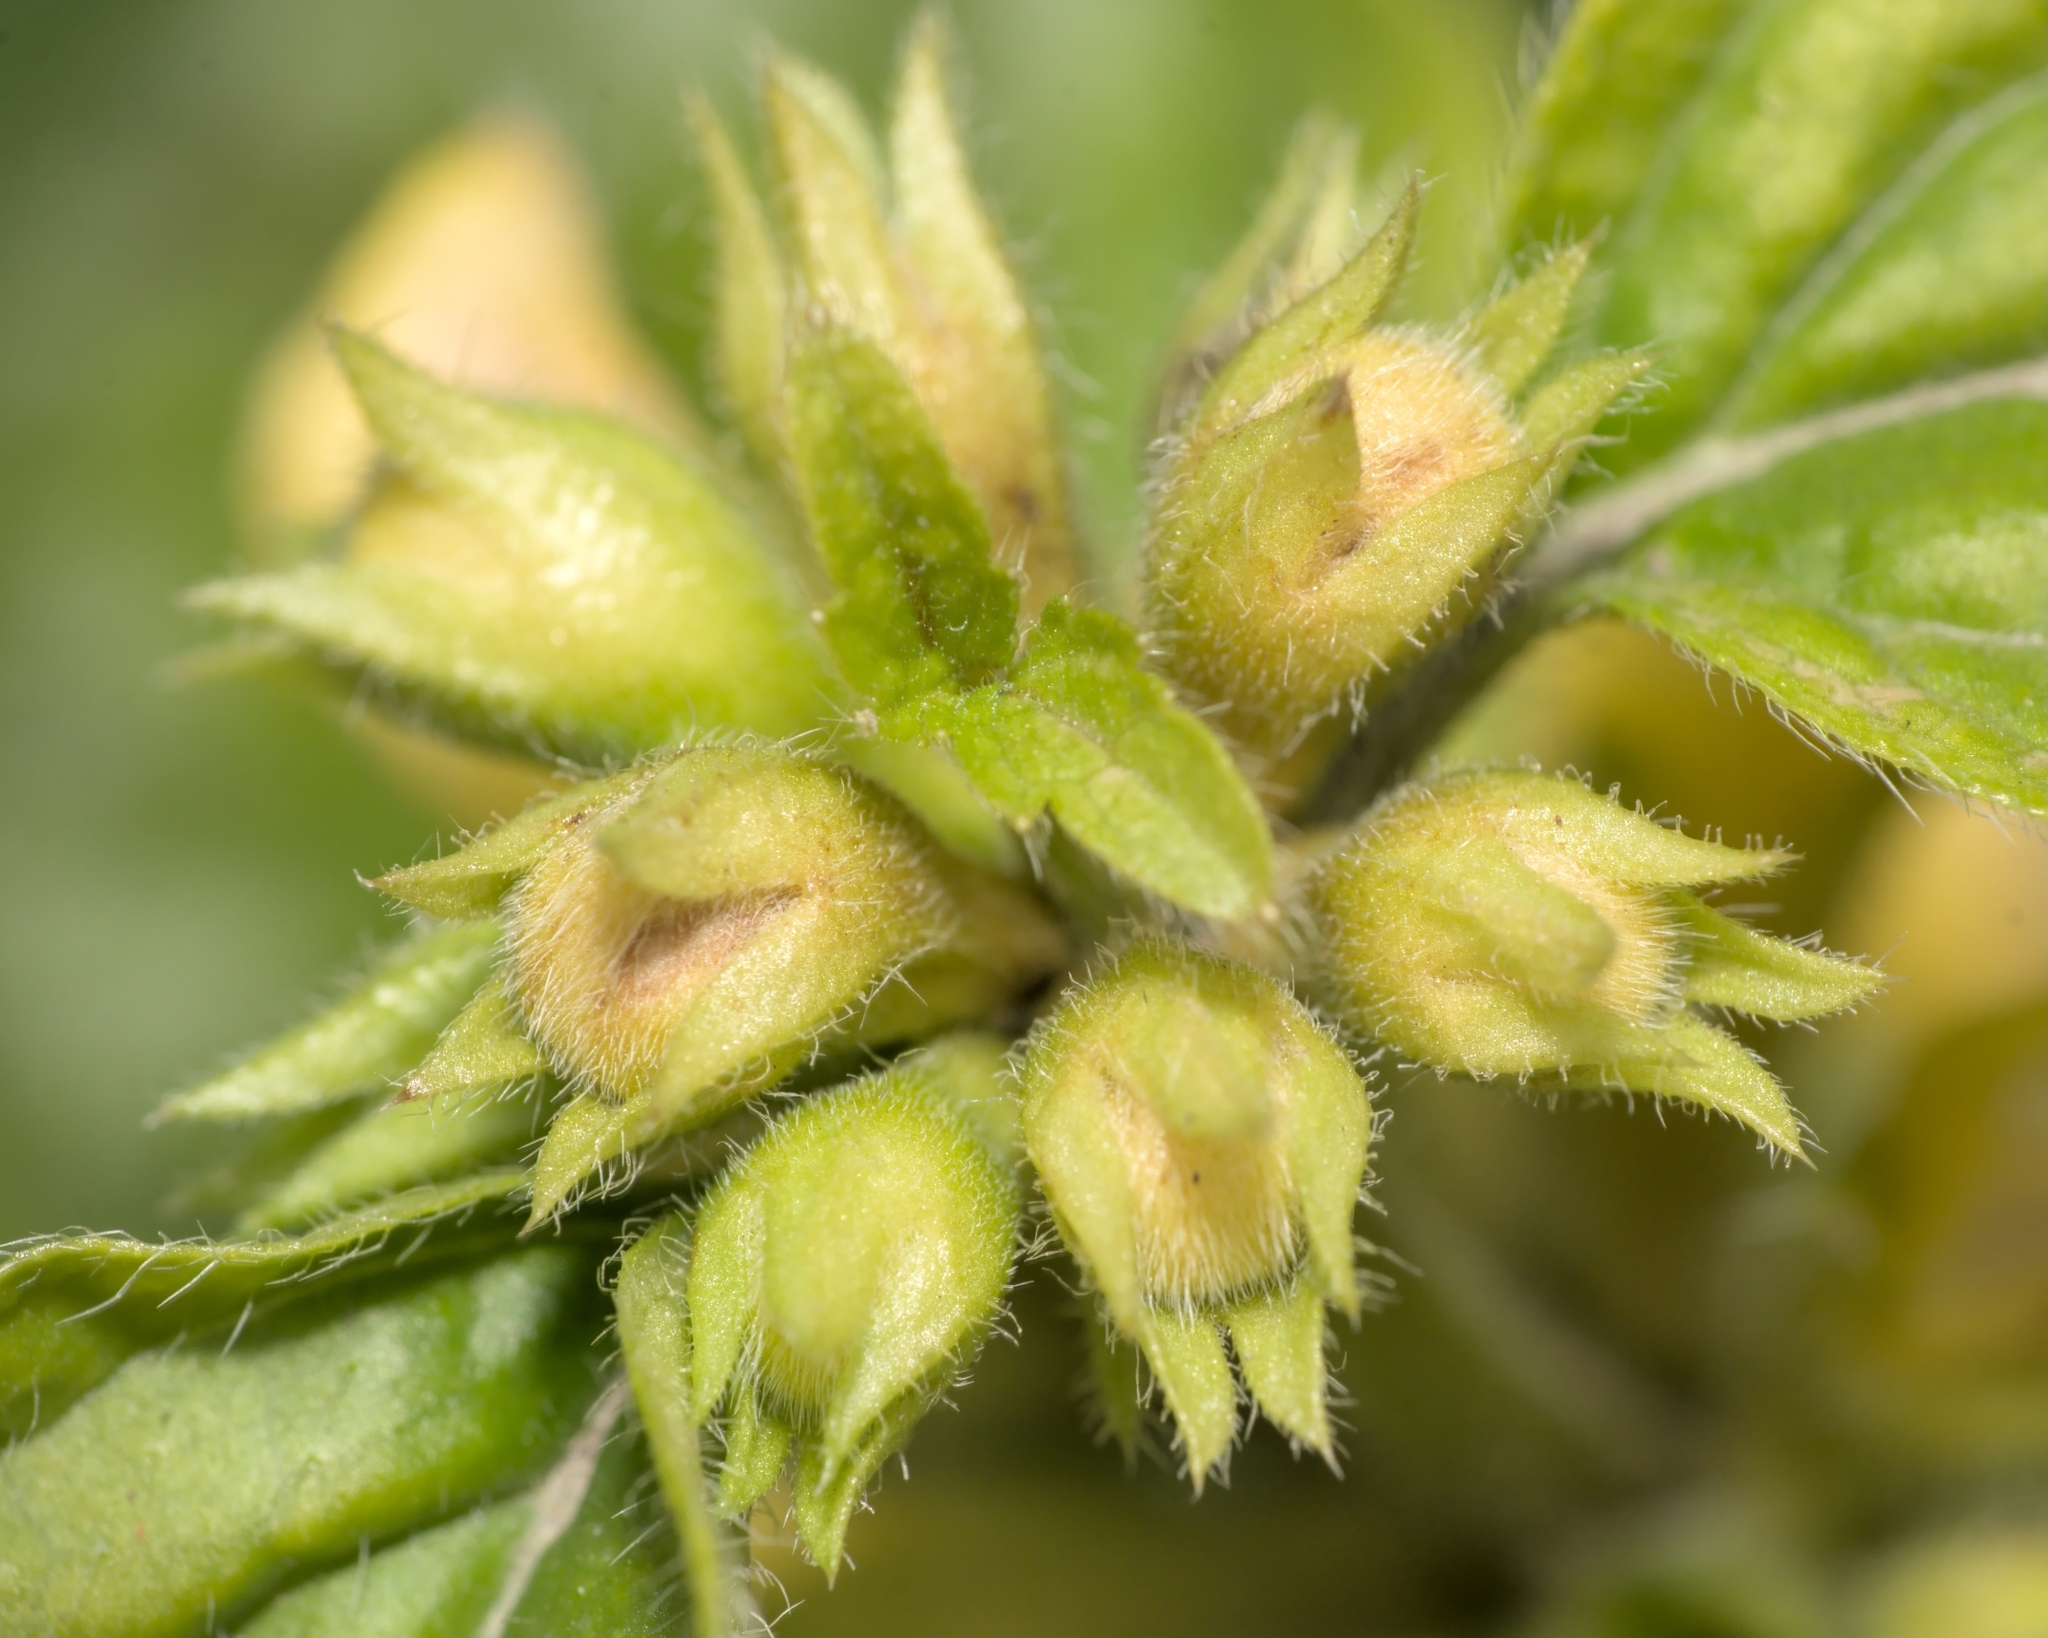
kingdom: Plantae
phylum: Tracheophyta
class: Magnoliopsida
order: Lamiales
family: Lamiaceae
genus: Lamium
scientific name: Lamium galeobdolon
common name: Yellow archangel
